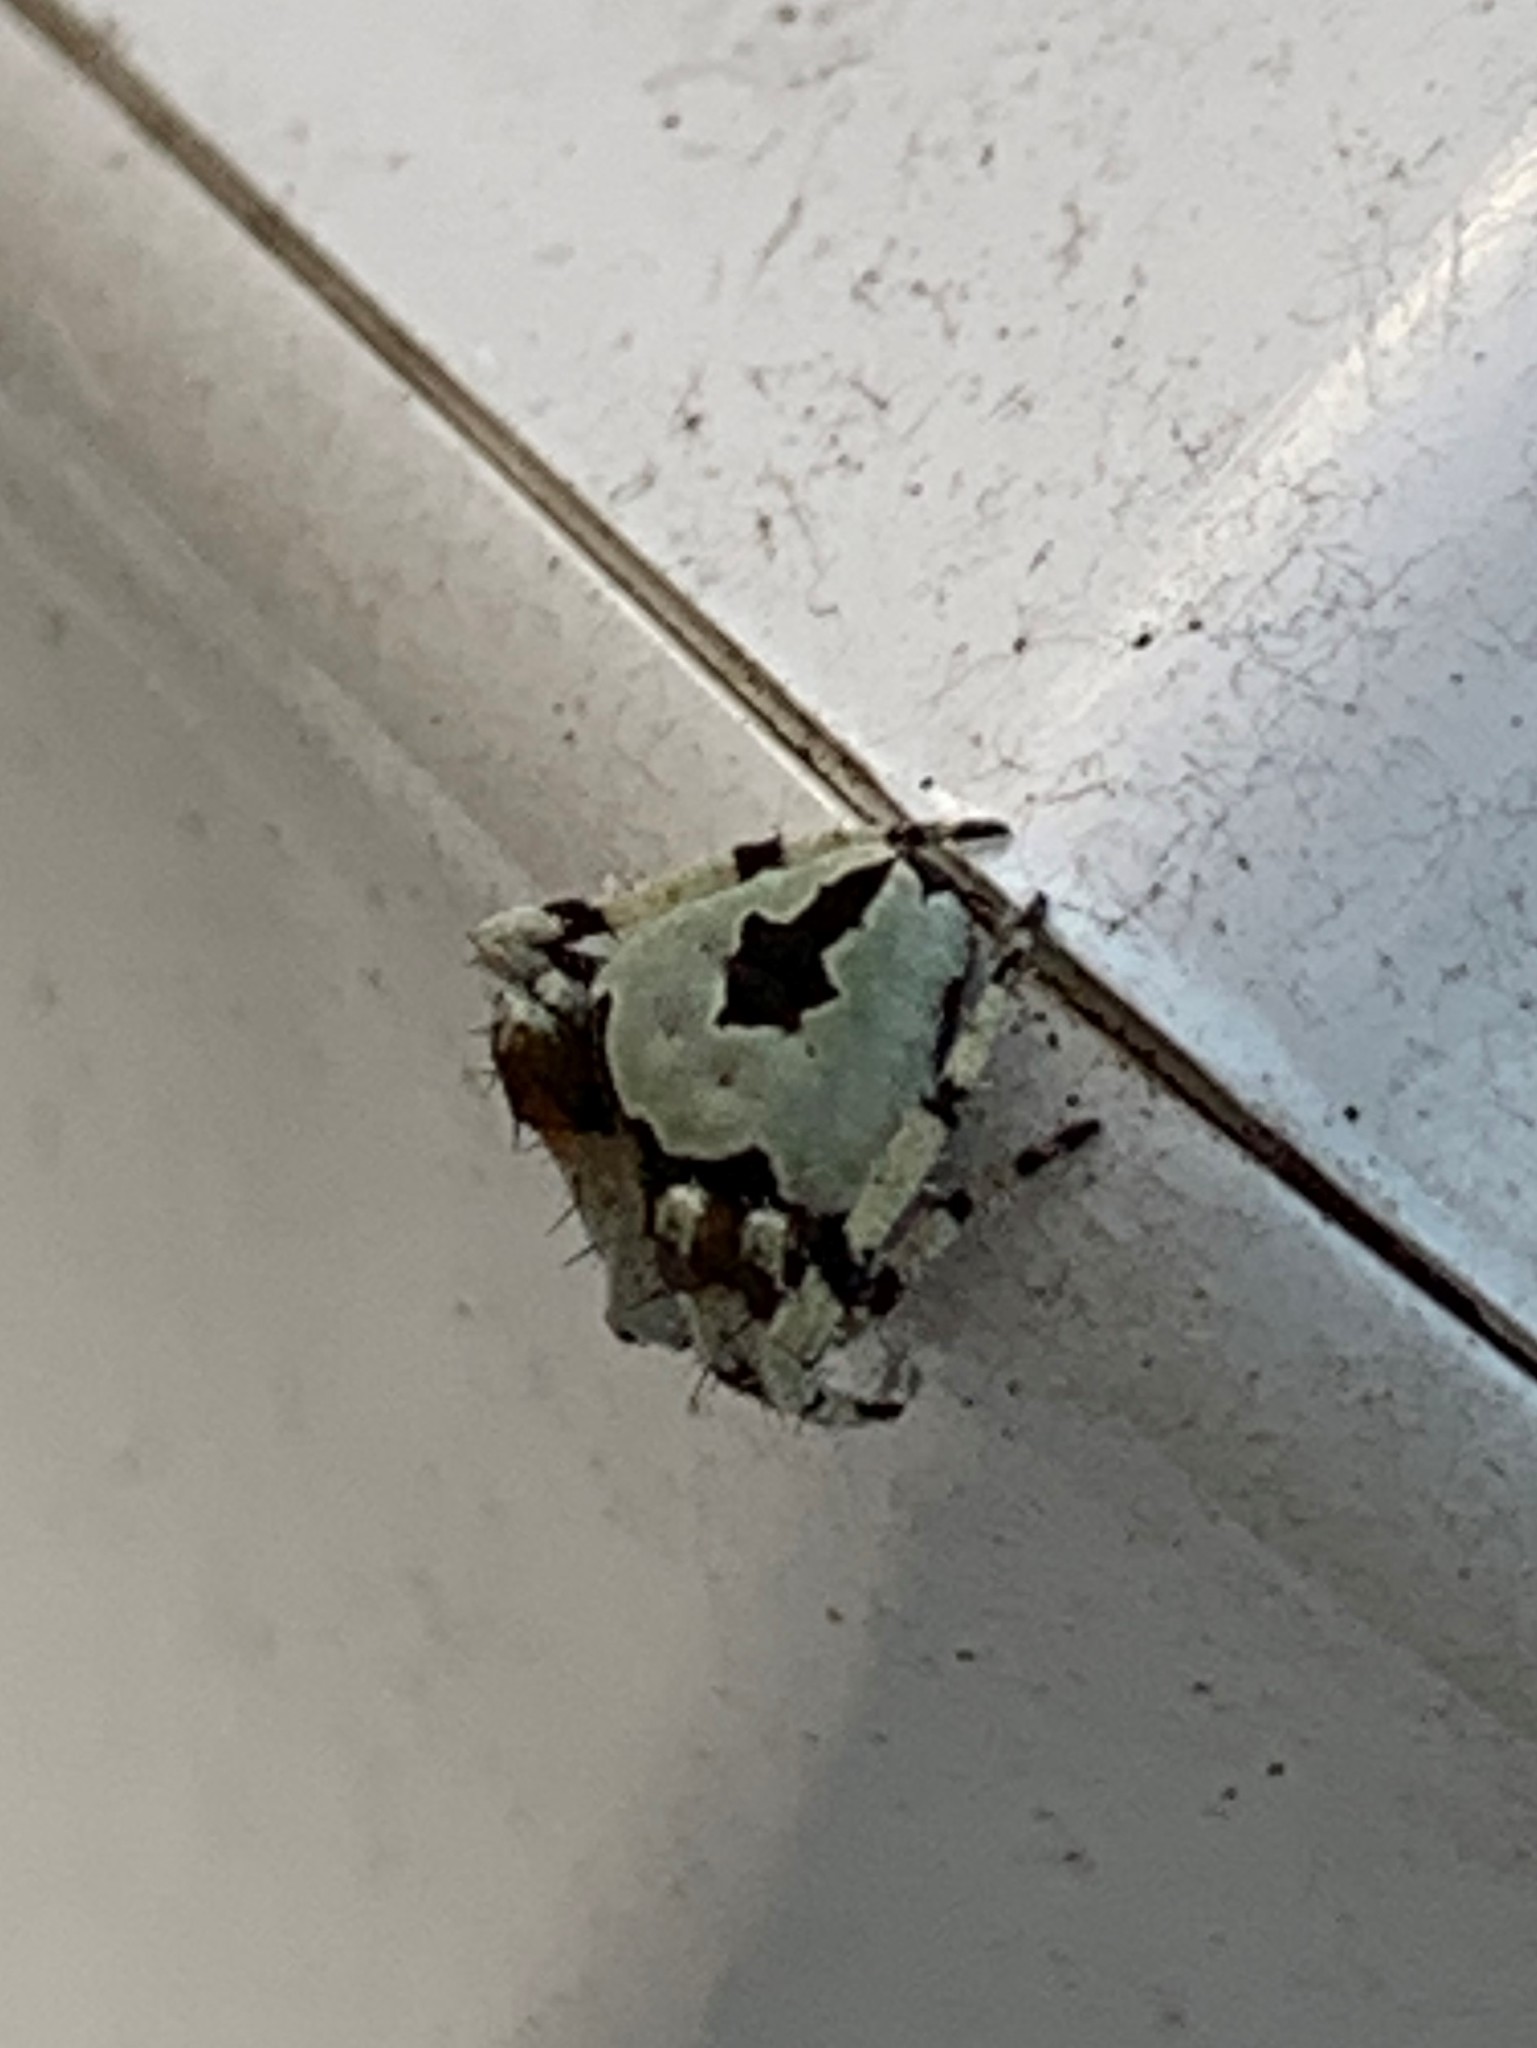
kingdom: Animalia
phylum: Arthropoda
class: Arachnida
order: Araneae
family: Araneidae
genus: Eustala
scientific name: Eustala anastera
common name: Orb weavers
